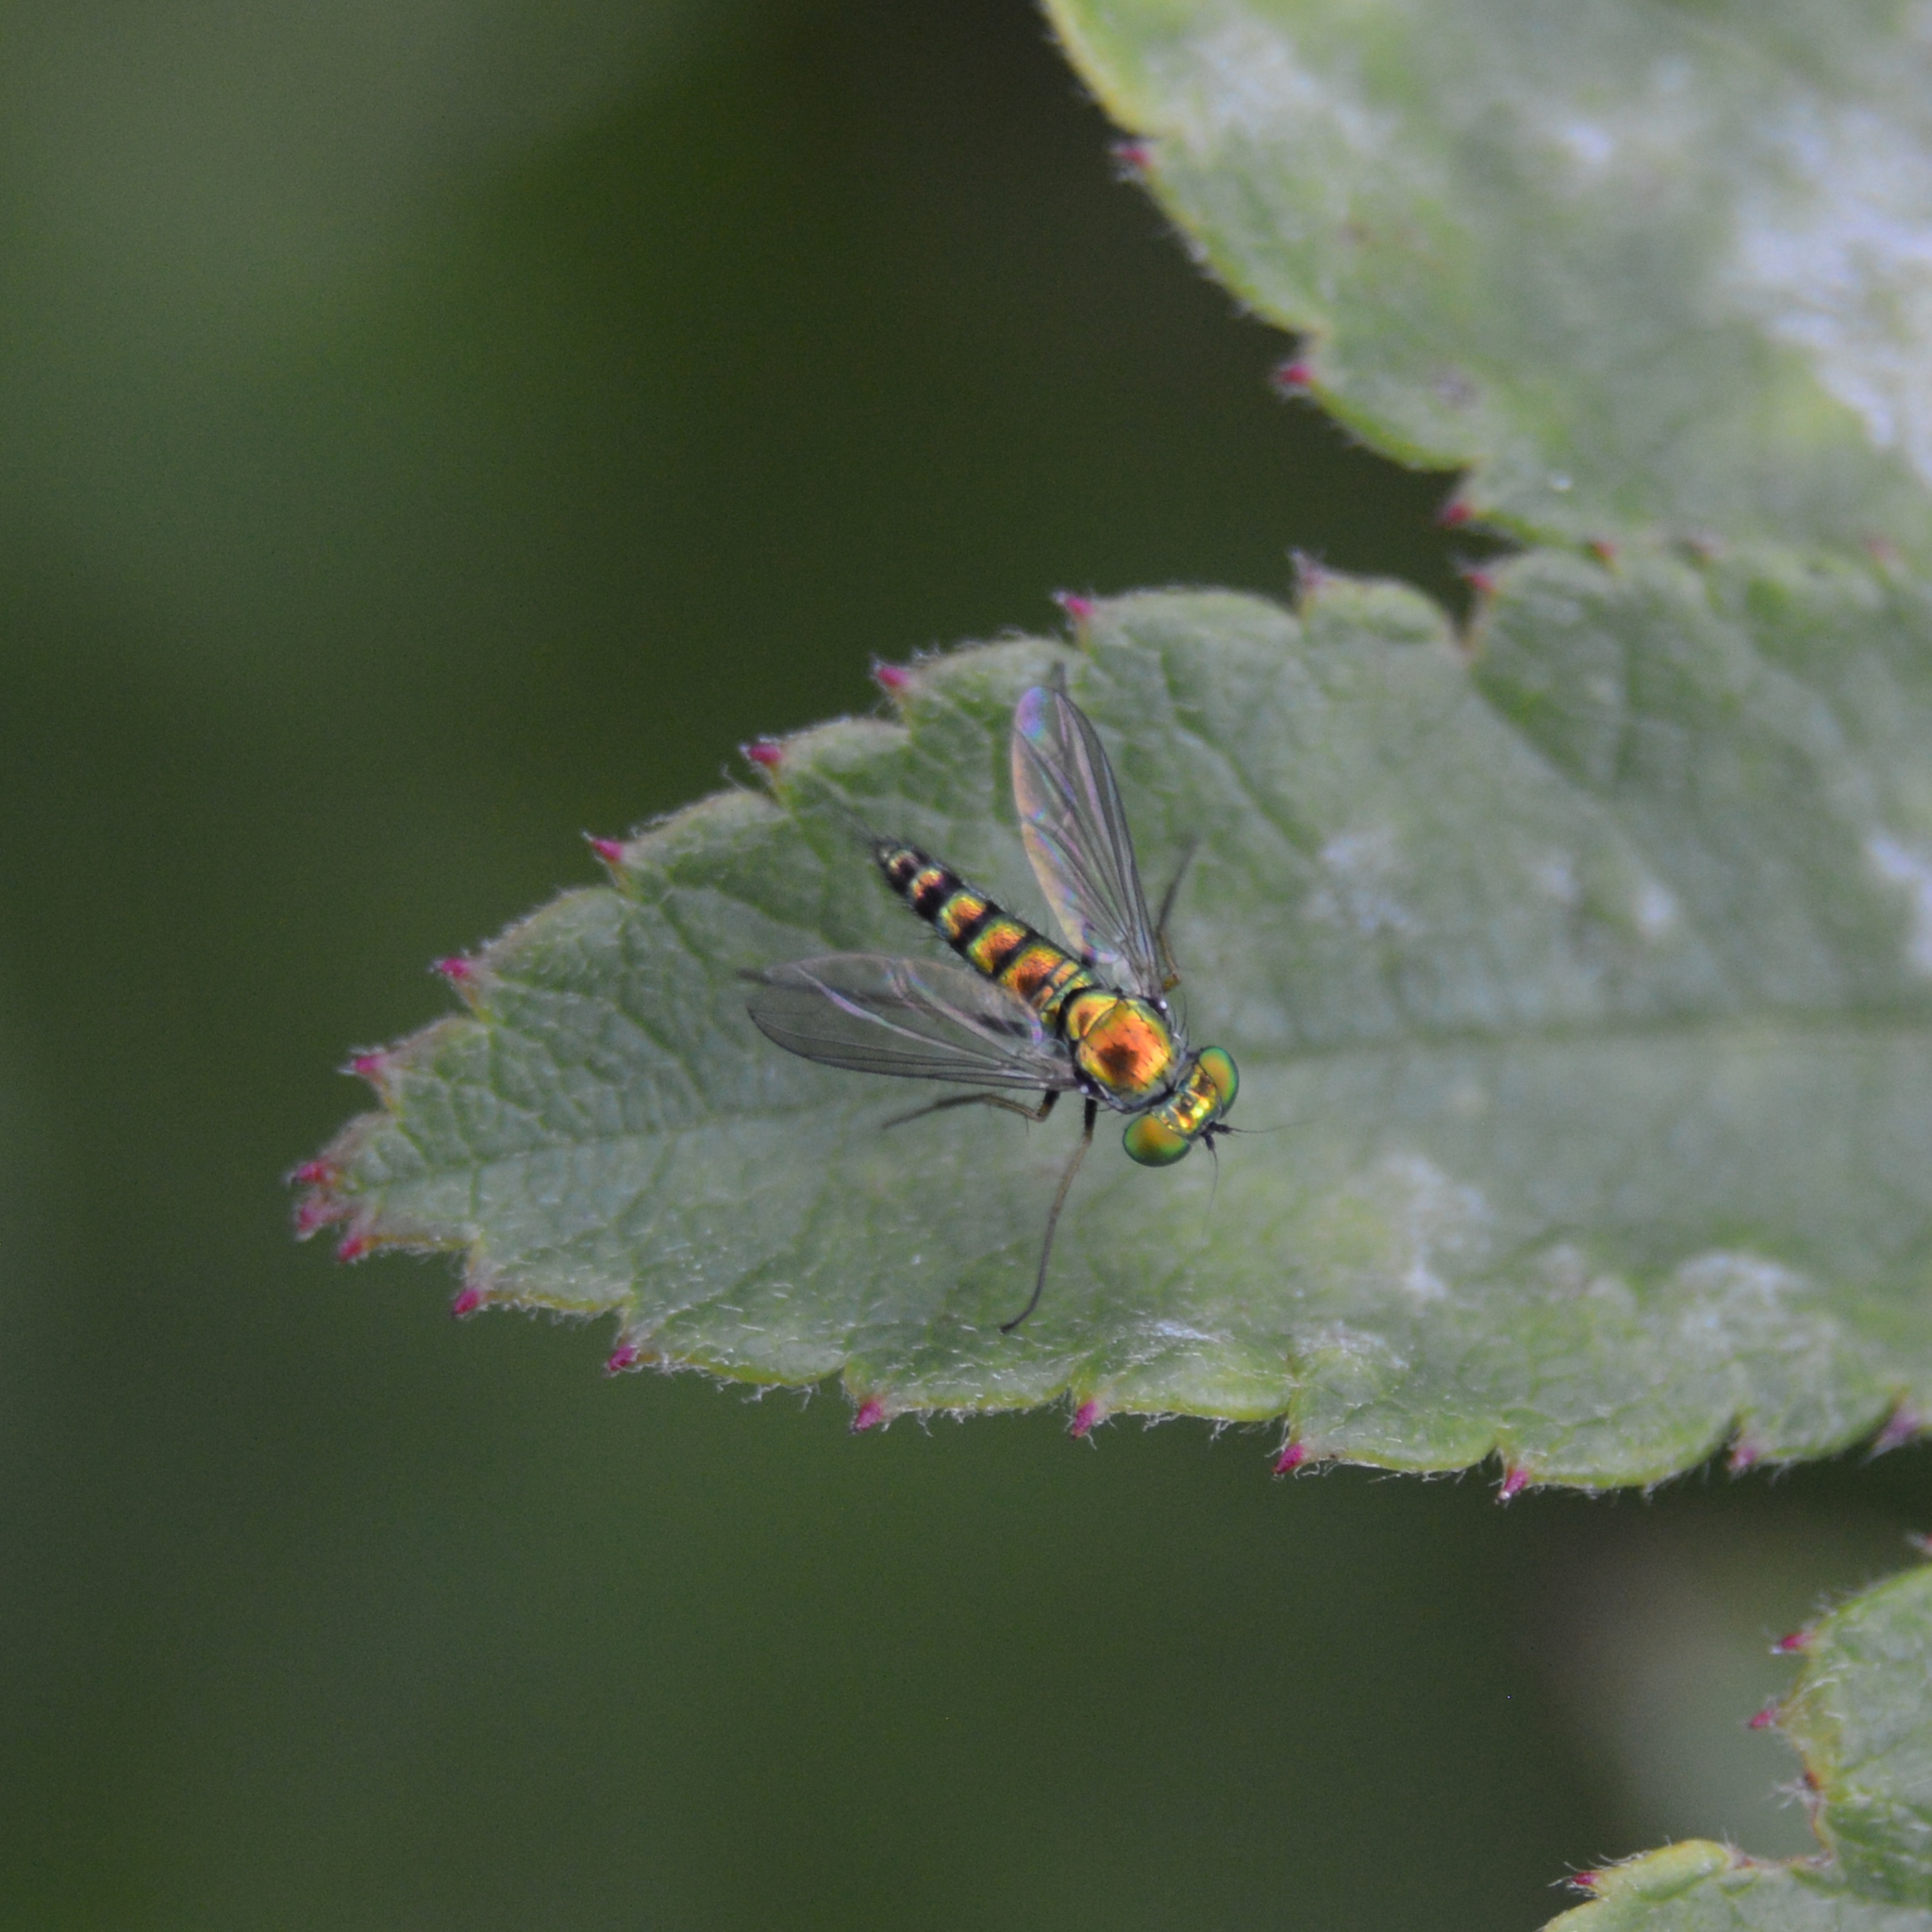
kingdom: Animalia
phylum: Arthropoda
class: Insecta
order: Diptera
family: Dolichopodidae
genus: Condylostylus
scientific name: Condylostylus caudatus
